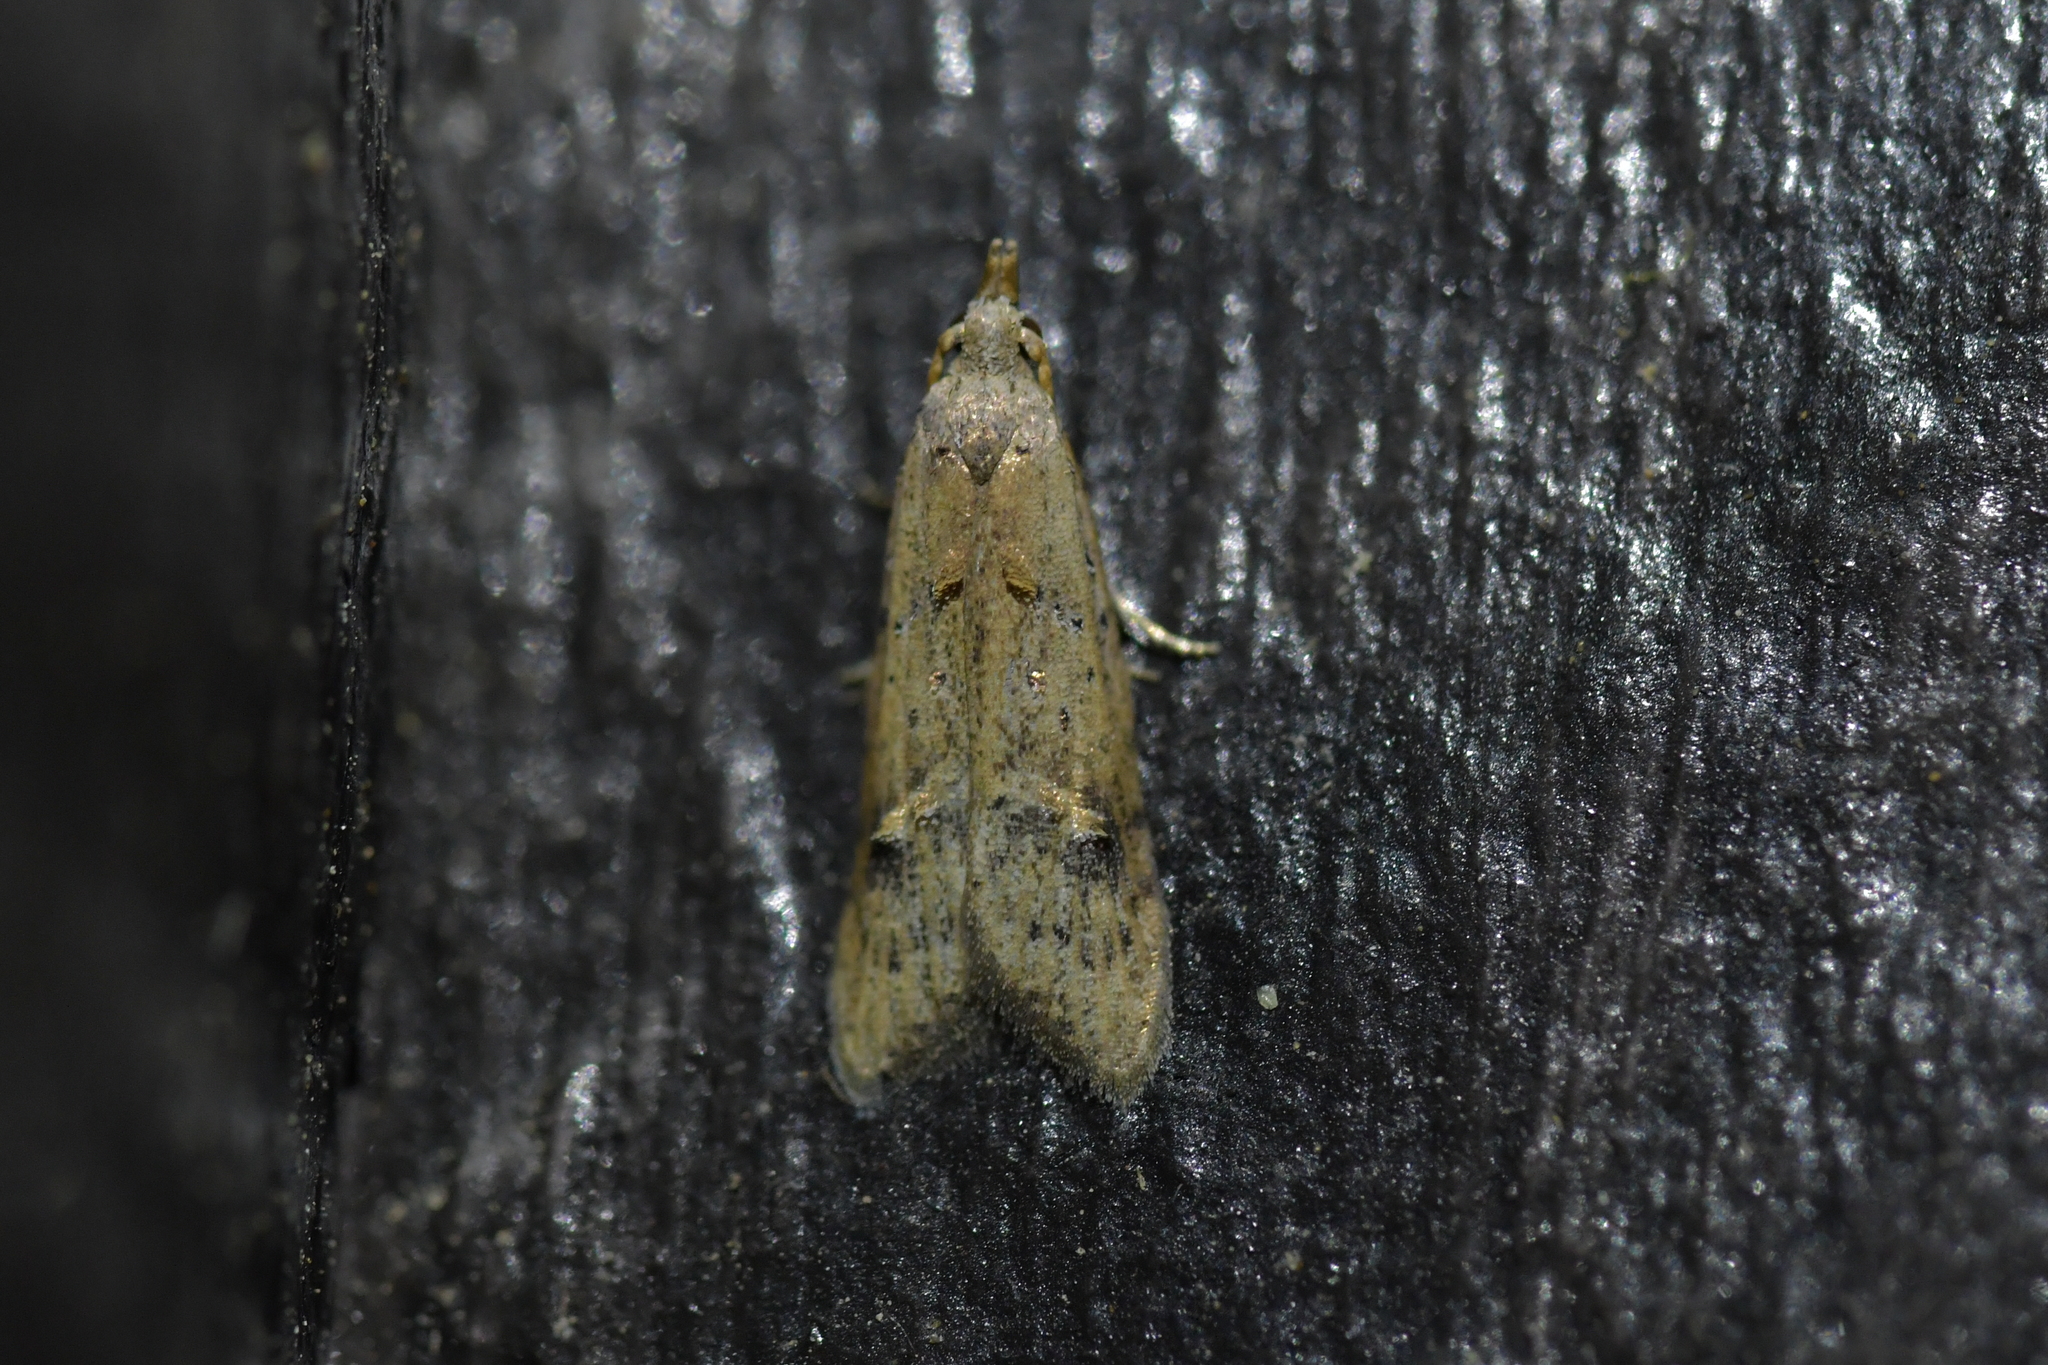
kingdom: Animalia
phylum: Arthropoda
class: Insecta
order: Lepidoptera
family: Carposinidae
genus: Carposina
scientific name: Carposina rubophaga
